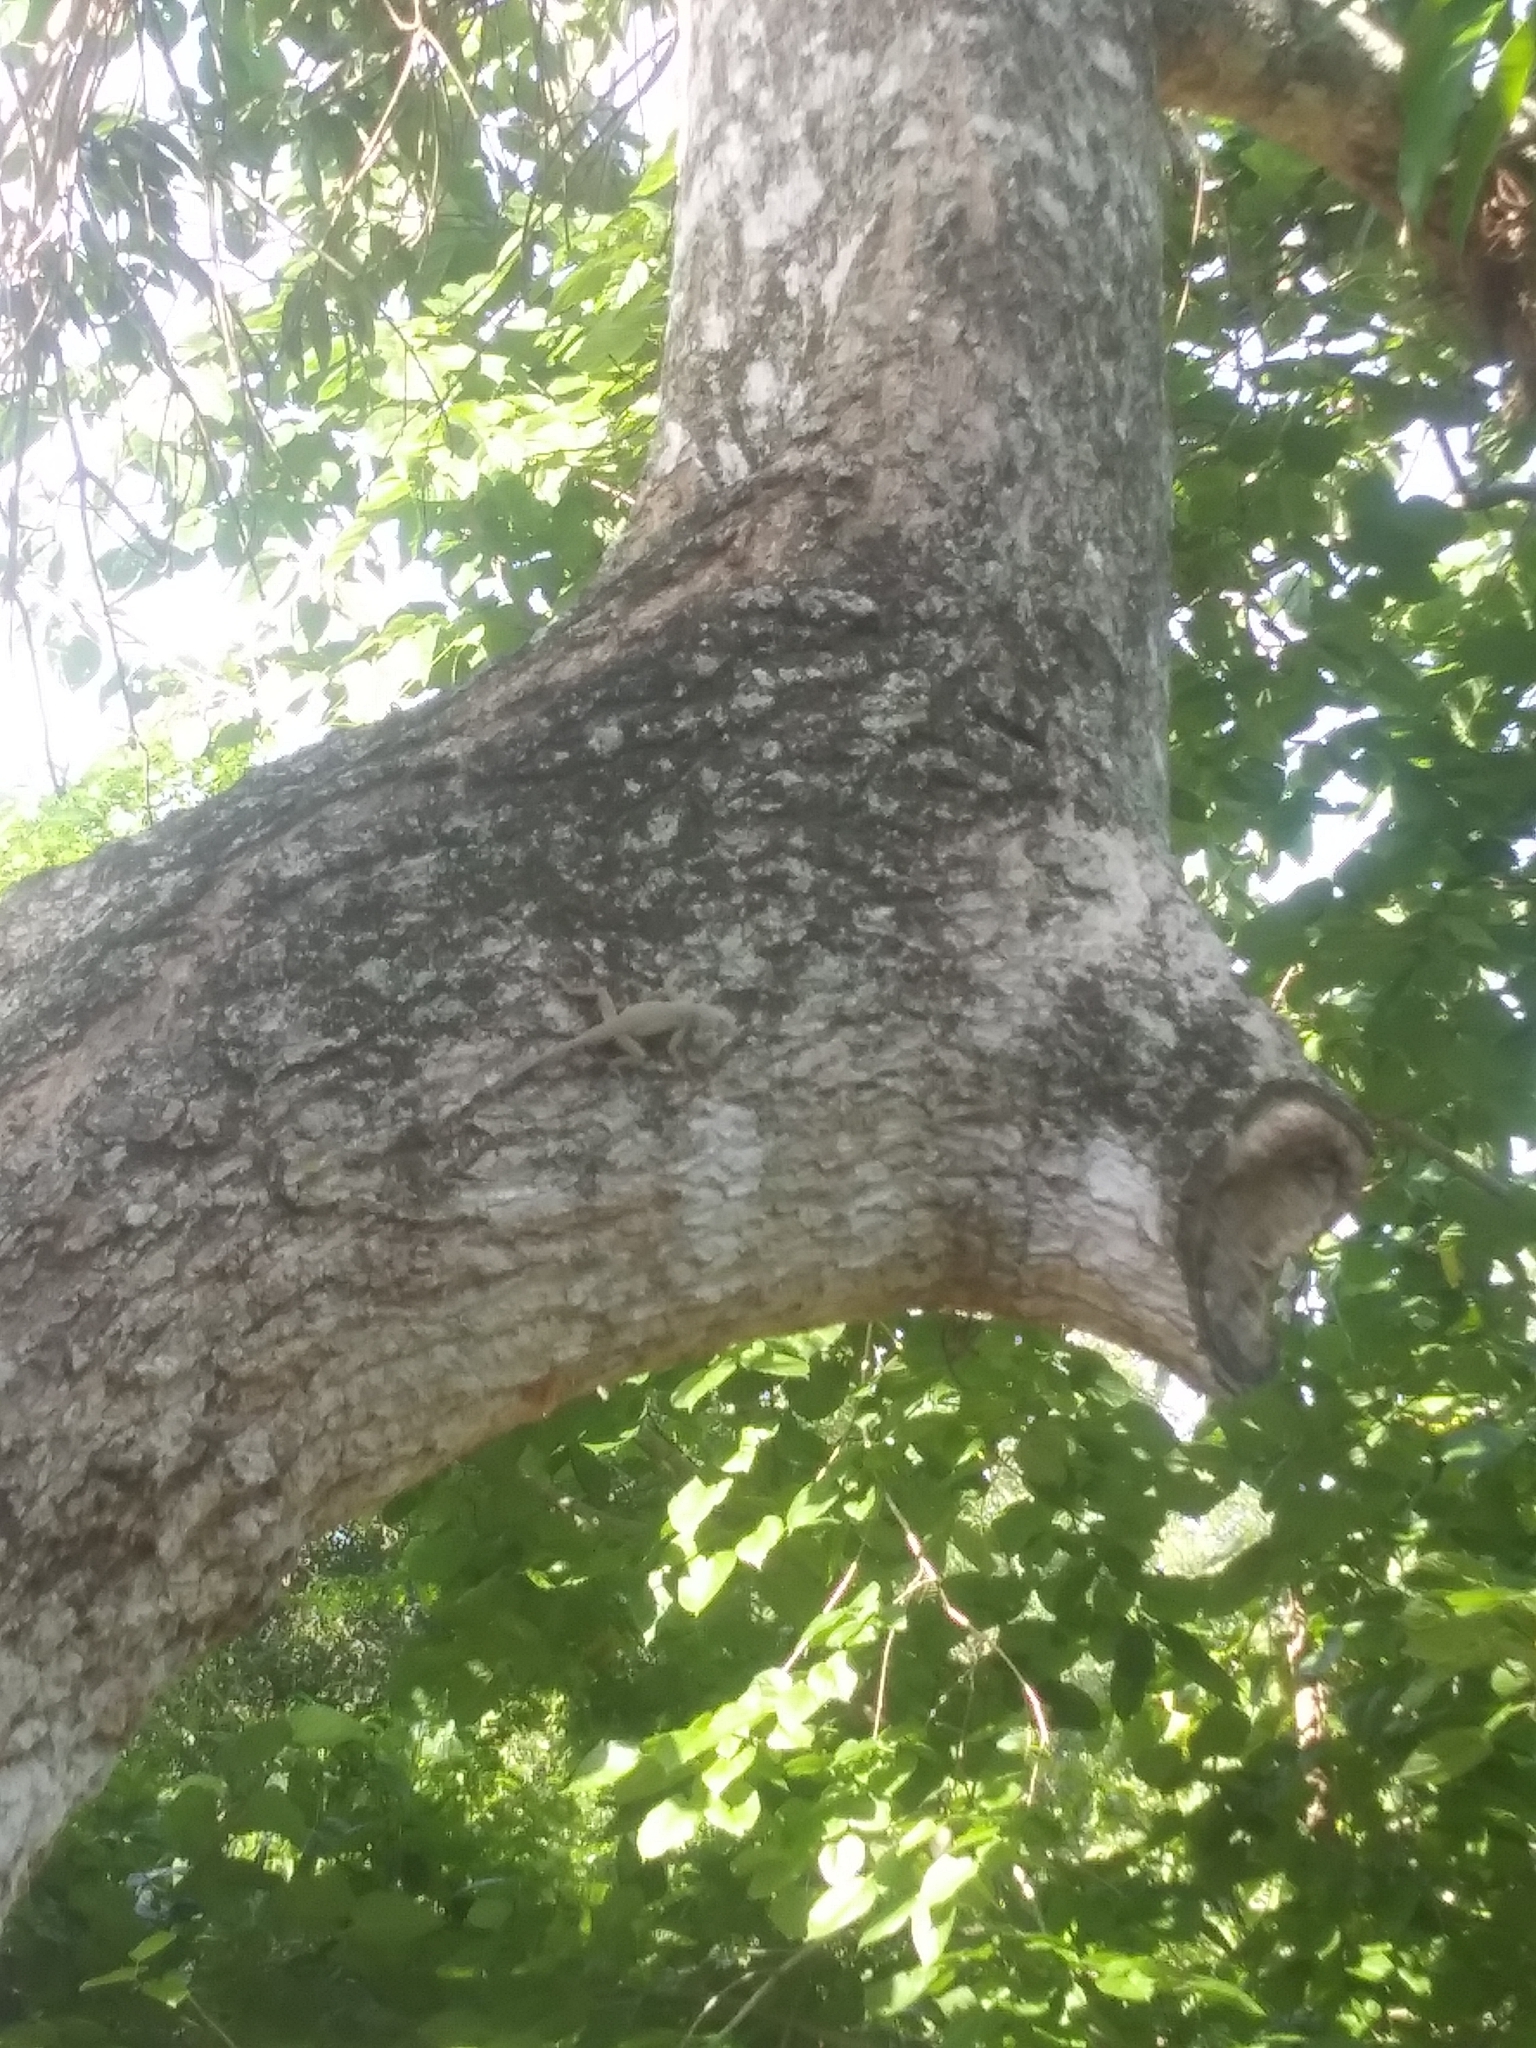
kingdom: Animalia
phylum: Chordata
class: Squamata
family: Dactyloidae
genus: Anolis
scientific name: Anolis distichus
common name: Bark anole
